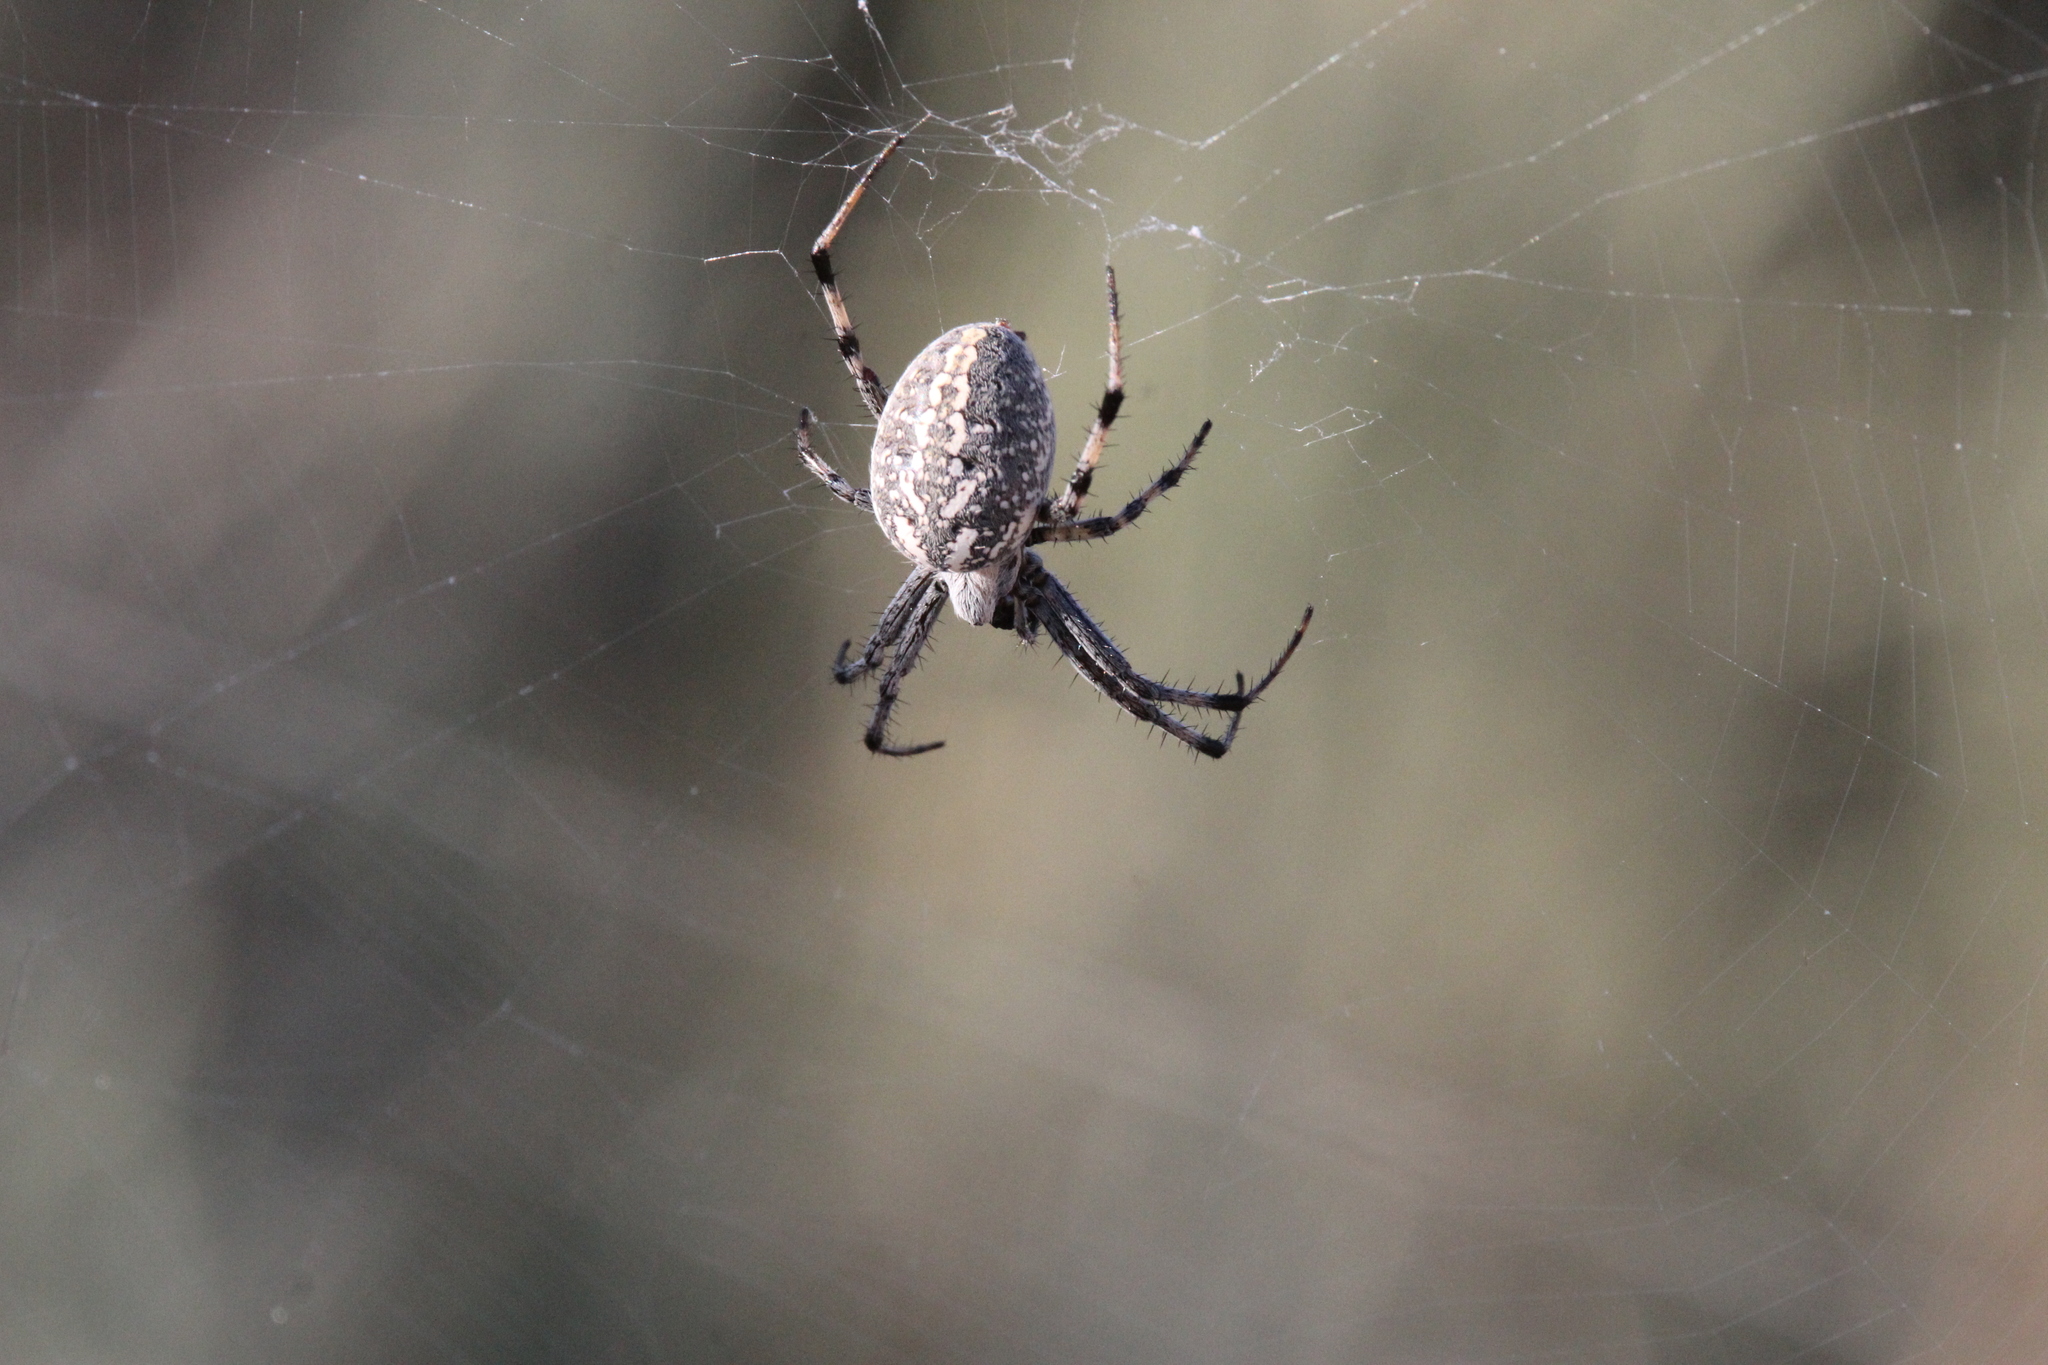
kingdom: Animalia
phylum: Arthropoda
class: Arachnida
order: Araneae
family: Araneidae
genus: Neoscona
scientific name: Neoscona oaxacensis
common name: Orb weavers
